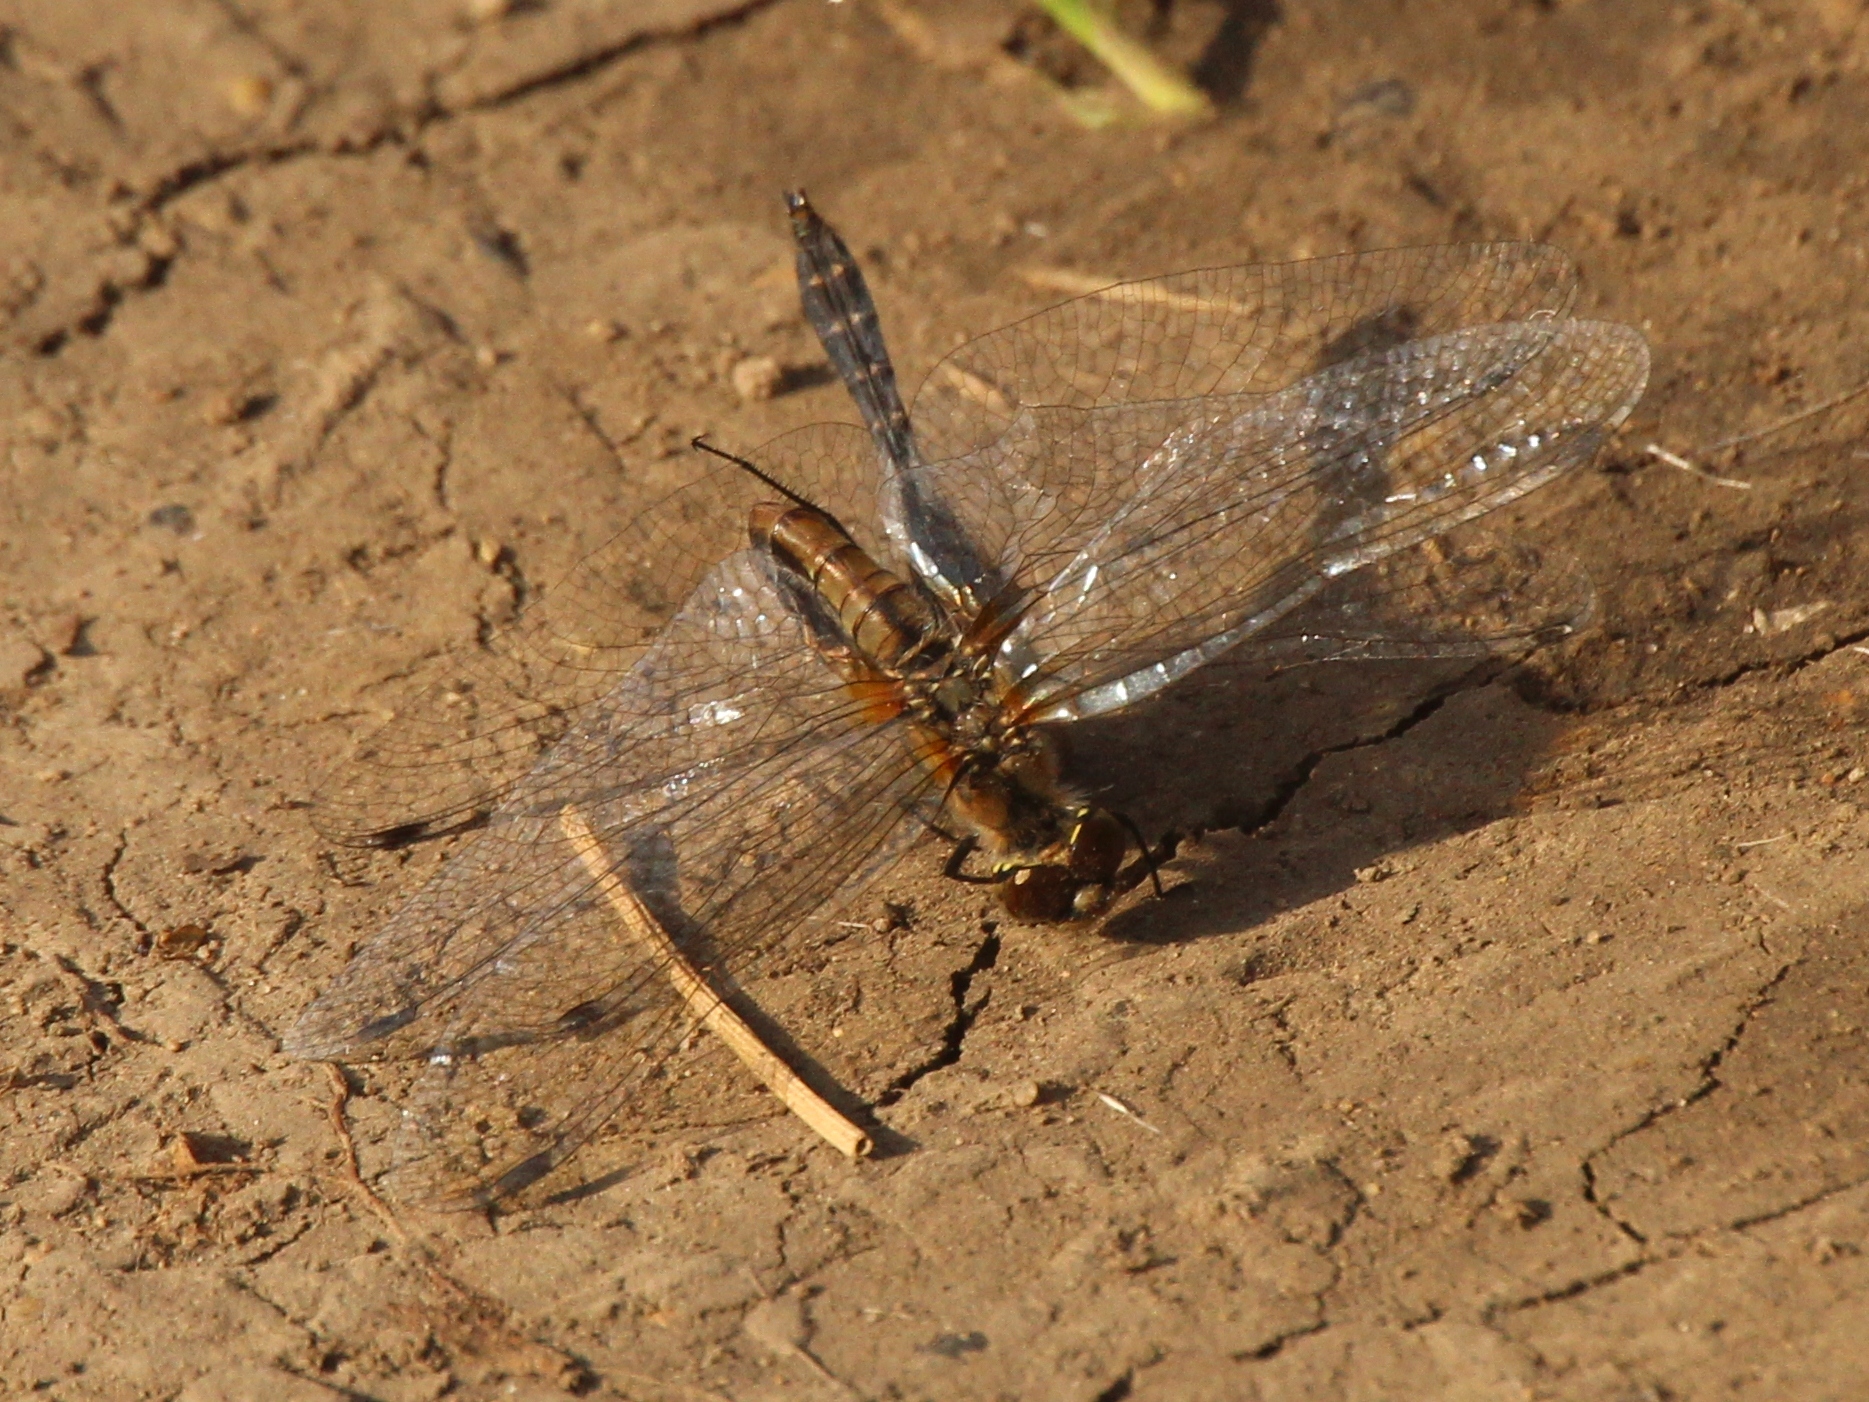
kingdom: Animalia
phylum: Arthropoda
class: Insecta
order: Odonata
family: Libellulidae
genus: Sympetrum
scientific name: Sympetrum danae
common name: Black darter
